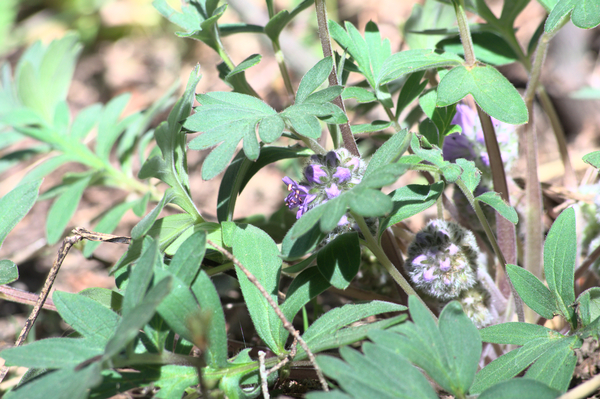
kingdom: Plantae
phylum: Tracheophyta
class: Magnoliopsida
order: Boraginales
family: Hydrophyllaceae
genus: Hydrophyllum
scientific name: Hydrophyllum capitatum
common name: Woollen-breeches
